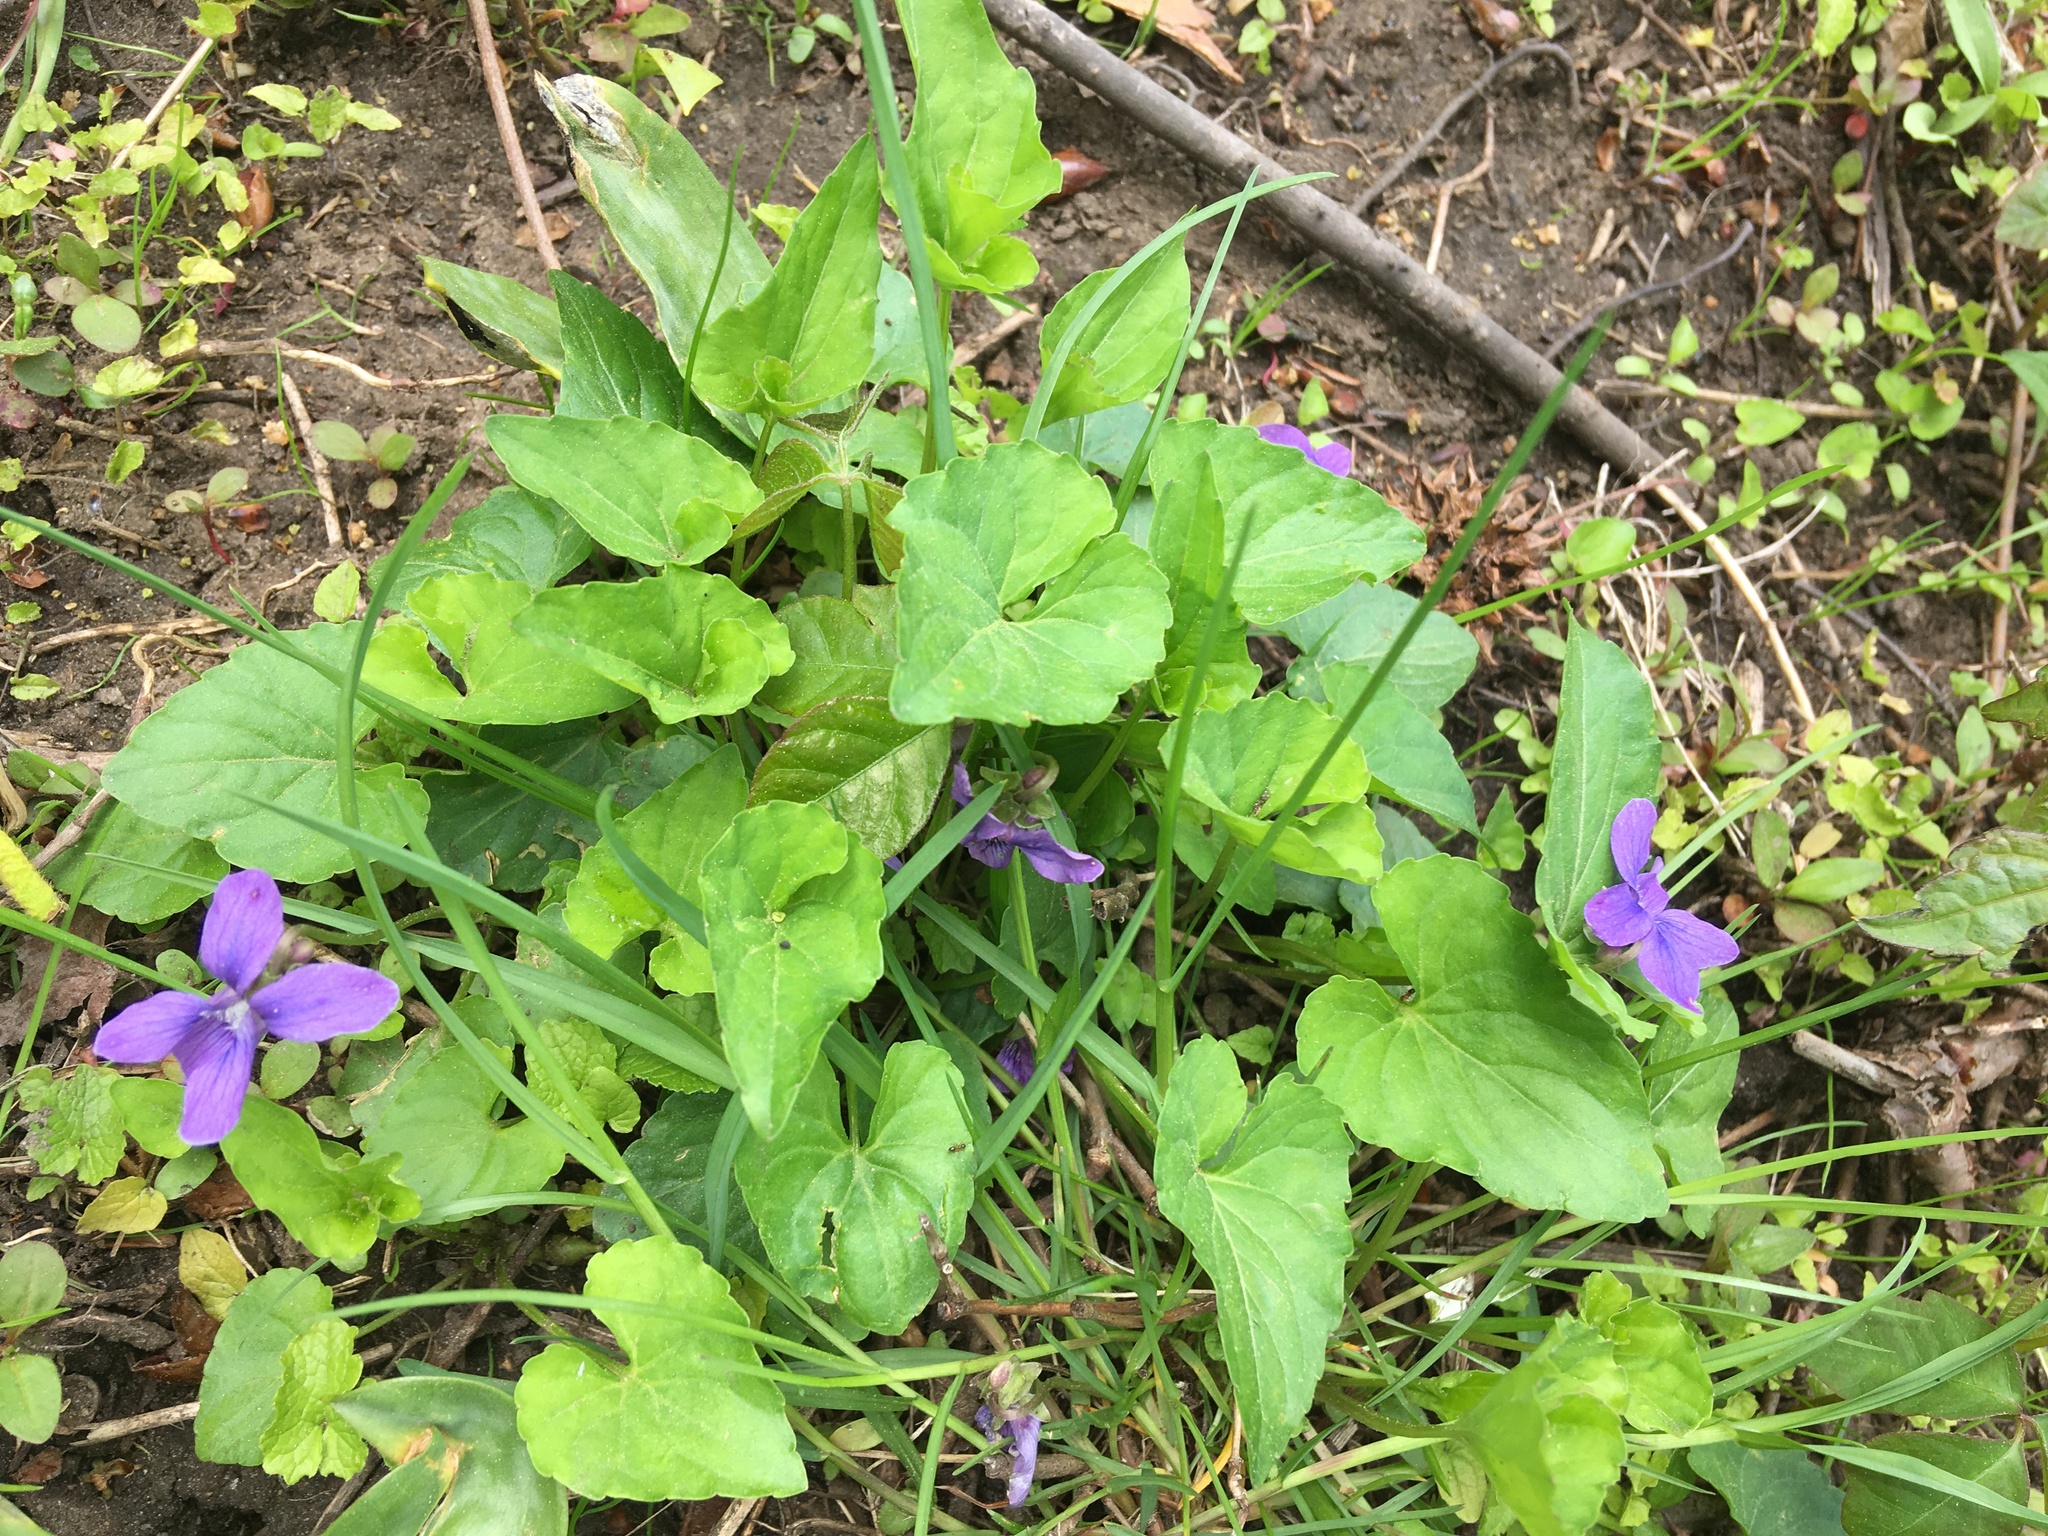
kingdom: Plantae
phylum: Tracheophyta
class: Magnoliopsida
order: Malpighiales
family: Violaceae
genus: Viola
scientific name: Viola sororia
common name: Dooryard violet
